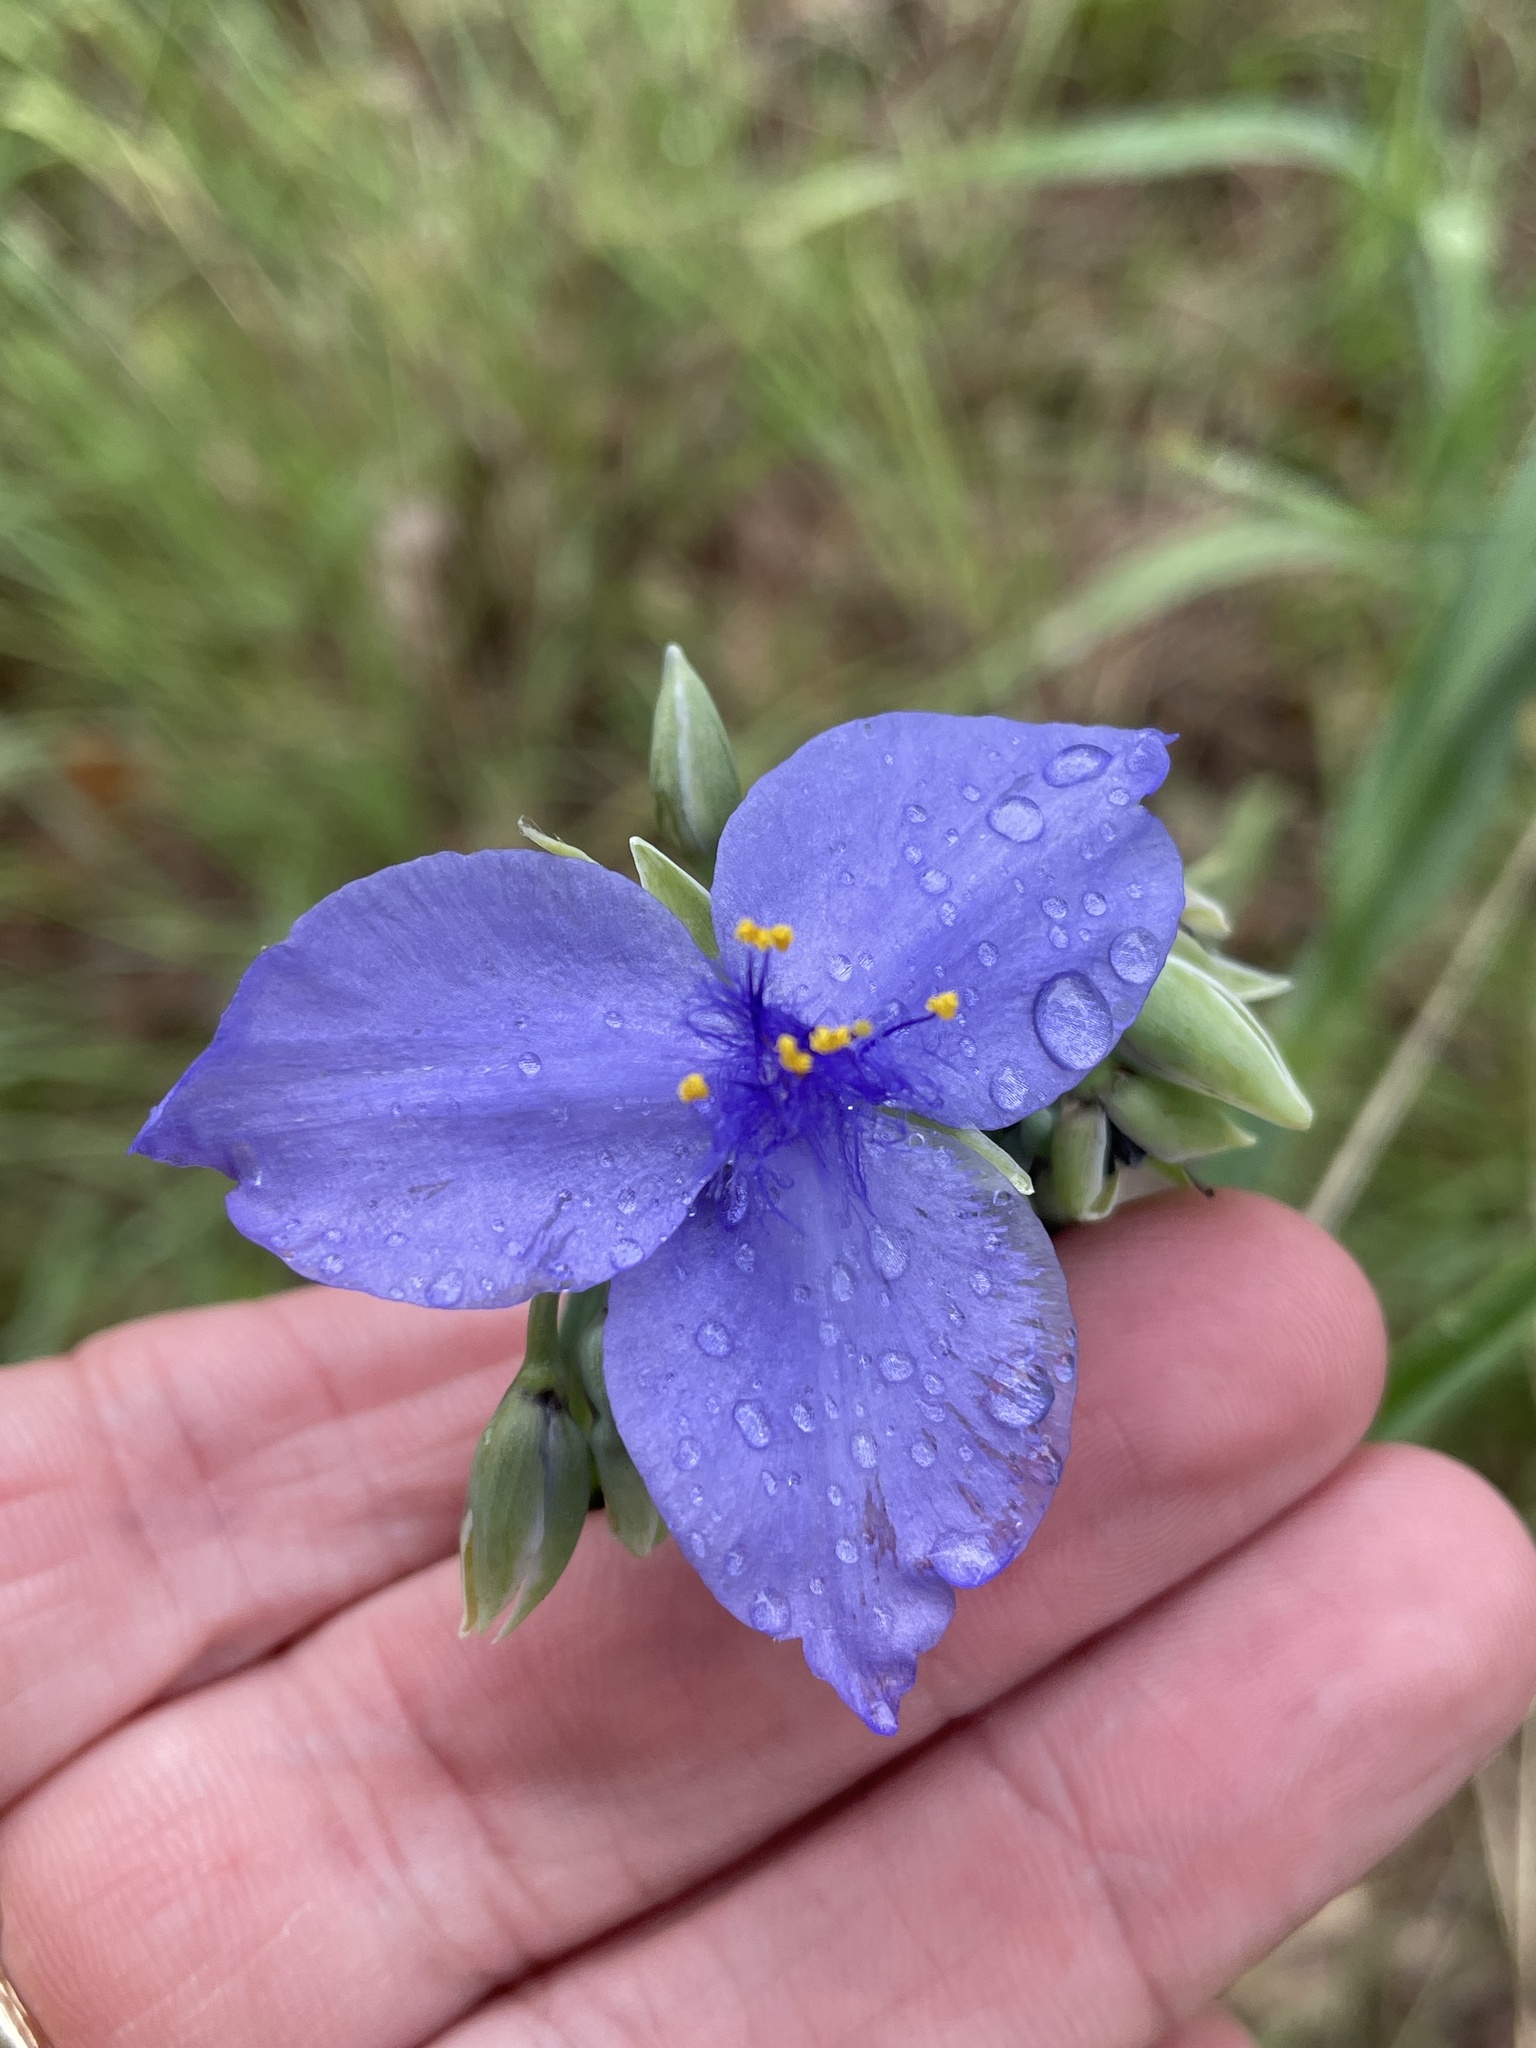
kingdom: Plantae
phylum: Tracheophyta
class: Liliopsida
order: Commelinales
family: Commelinaceae
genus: Tradescantia
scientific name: Tradescantia ohiensis
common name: Ohio spiderwort
